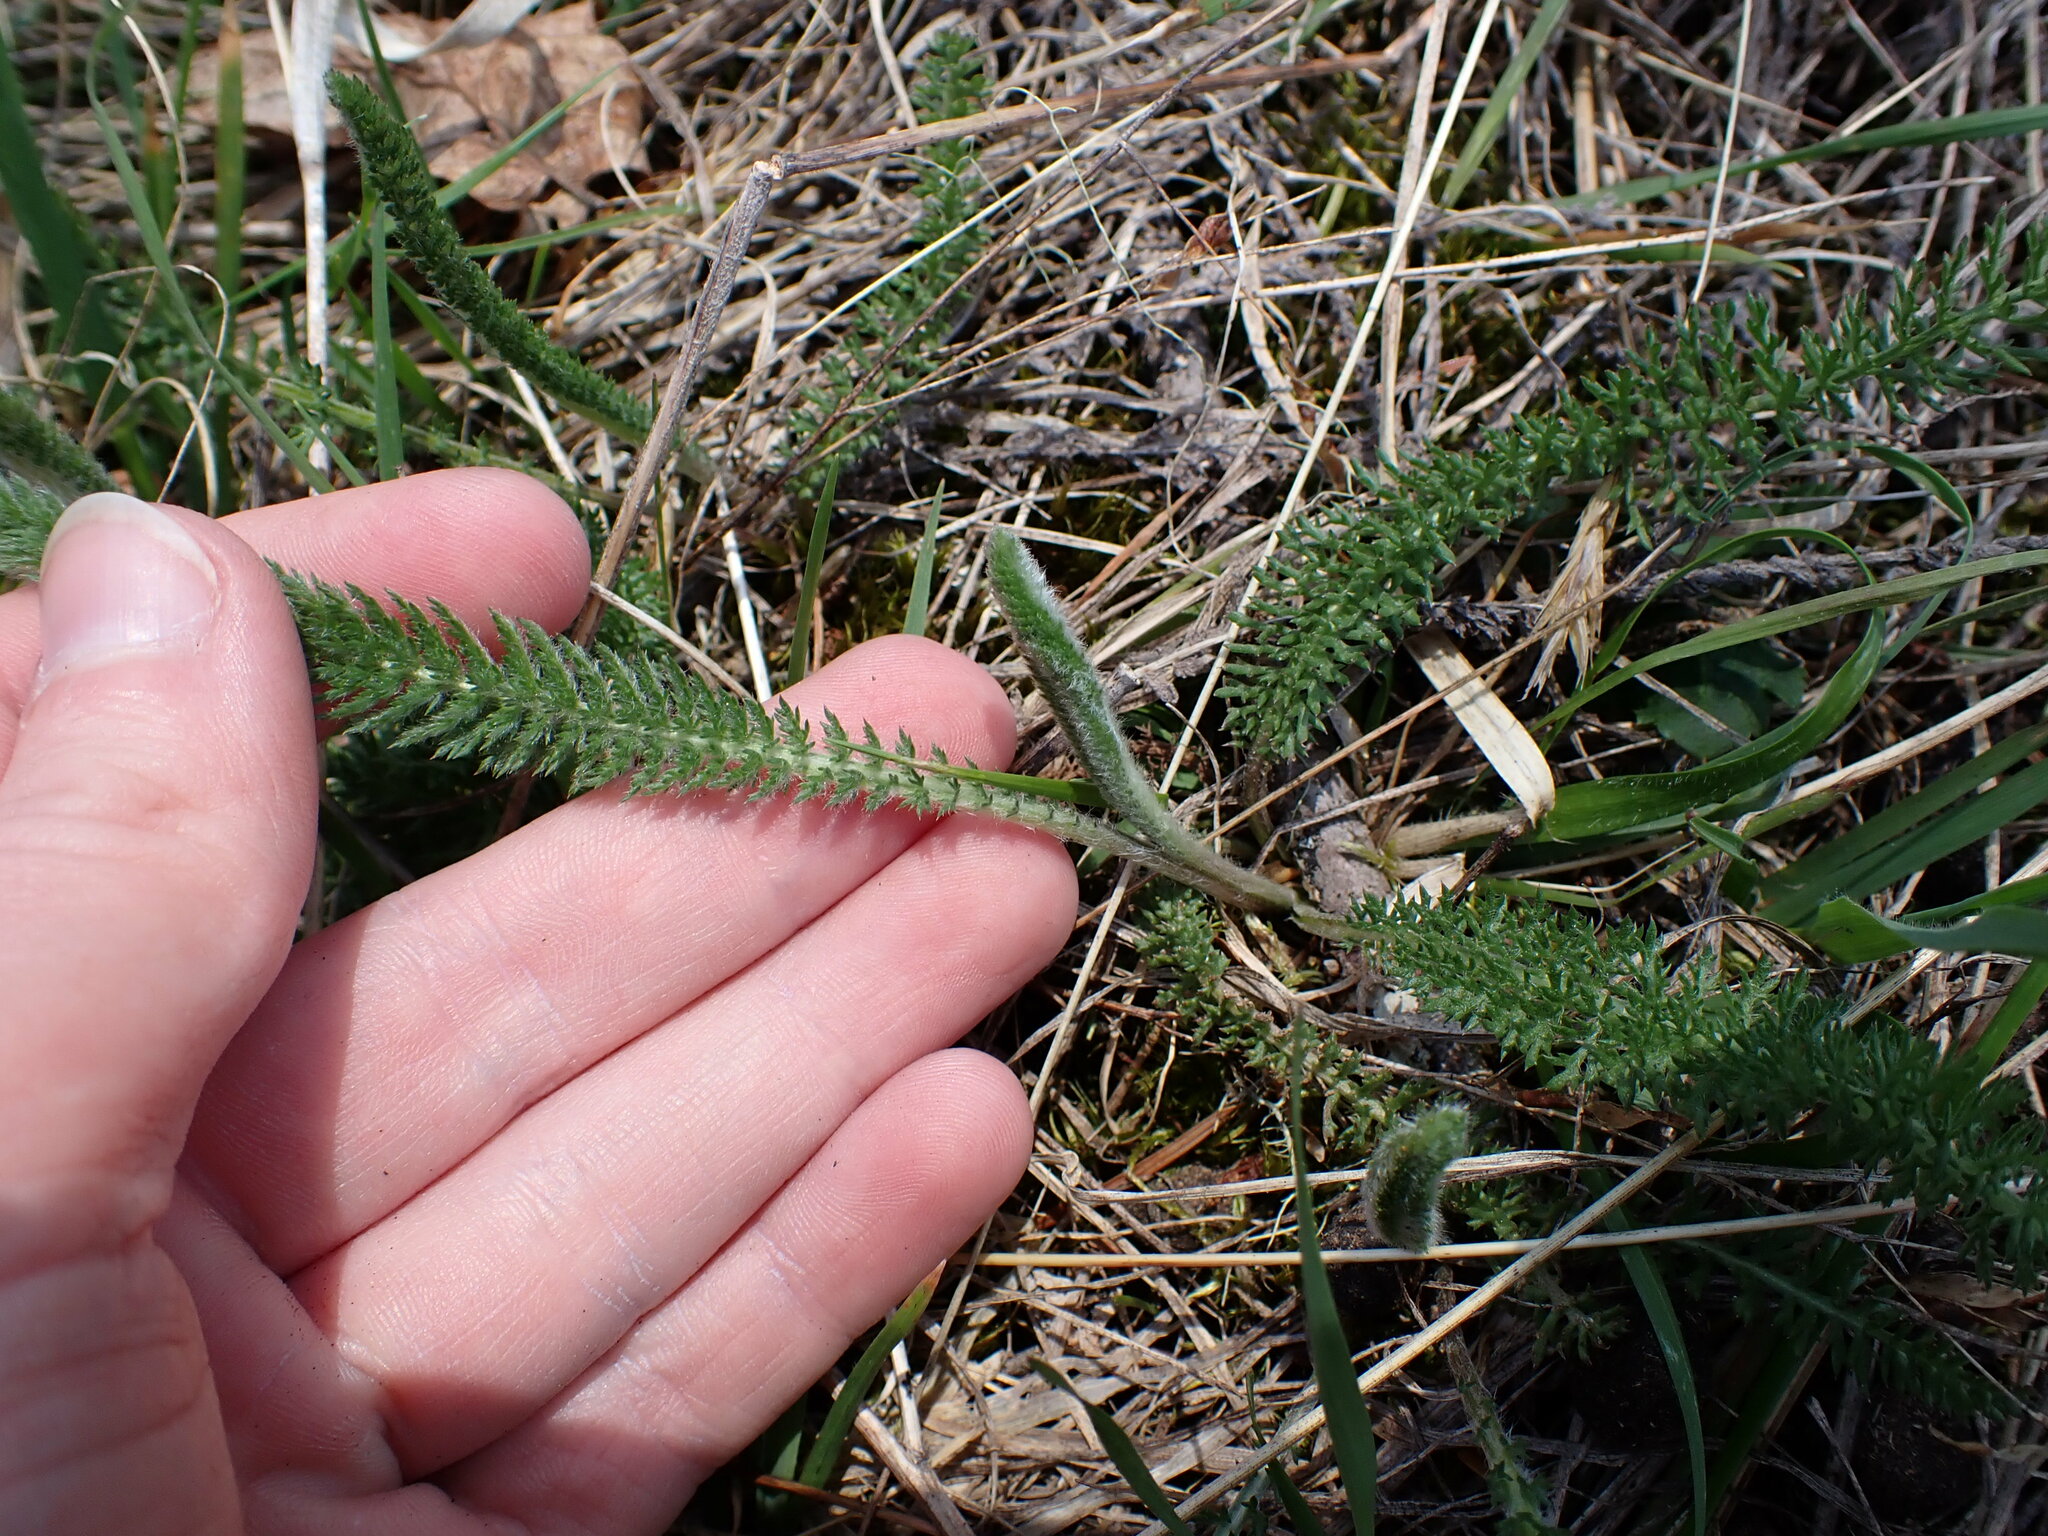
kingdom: Plantae
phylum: Tracheophyta
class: Magnoliopsida
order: Asterales
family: Asteraceae
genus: Achillea
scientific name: Achillea millefolium
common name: Yarrow
